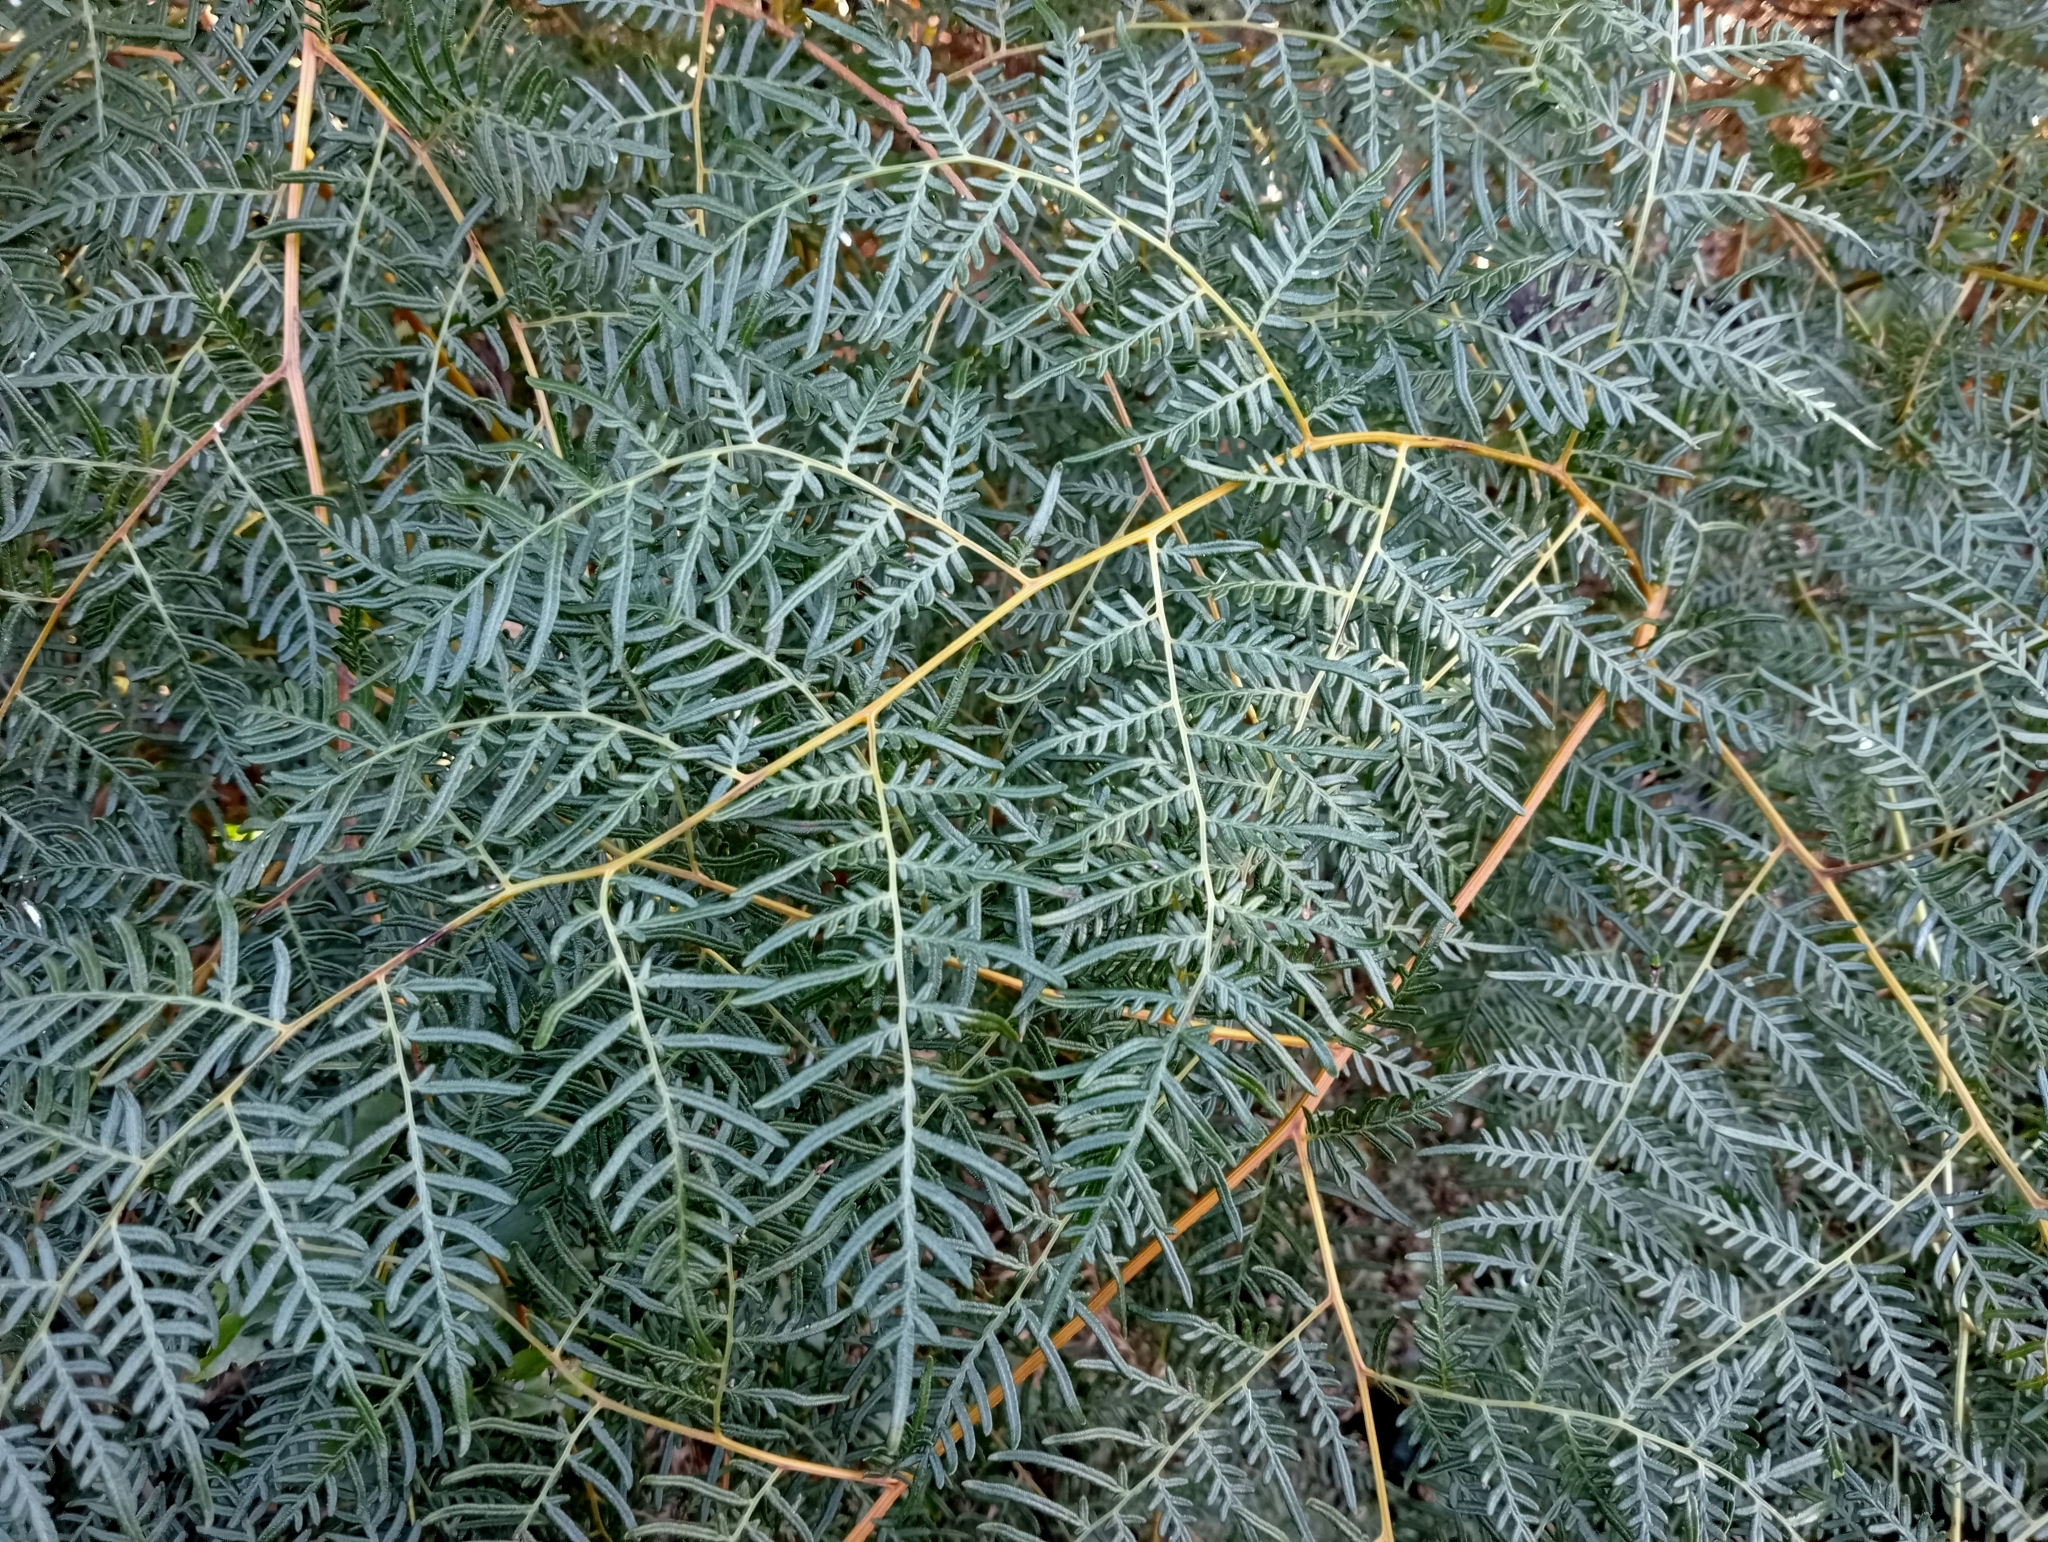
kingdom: Plantae
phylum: Tracheophyta
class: Polypodiopsida
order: Polypodiales
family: Dennstaedtiaceae
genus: Pteridium
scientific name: Pteridium esculentum
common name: Bracken fern
